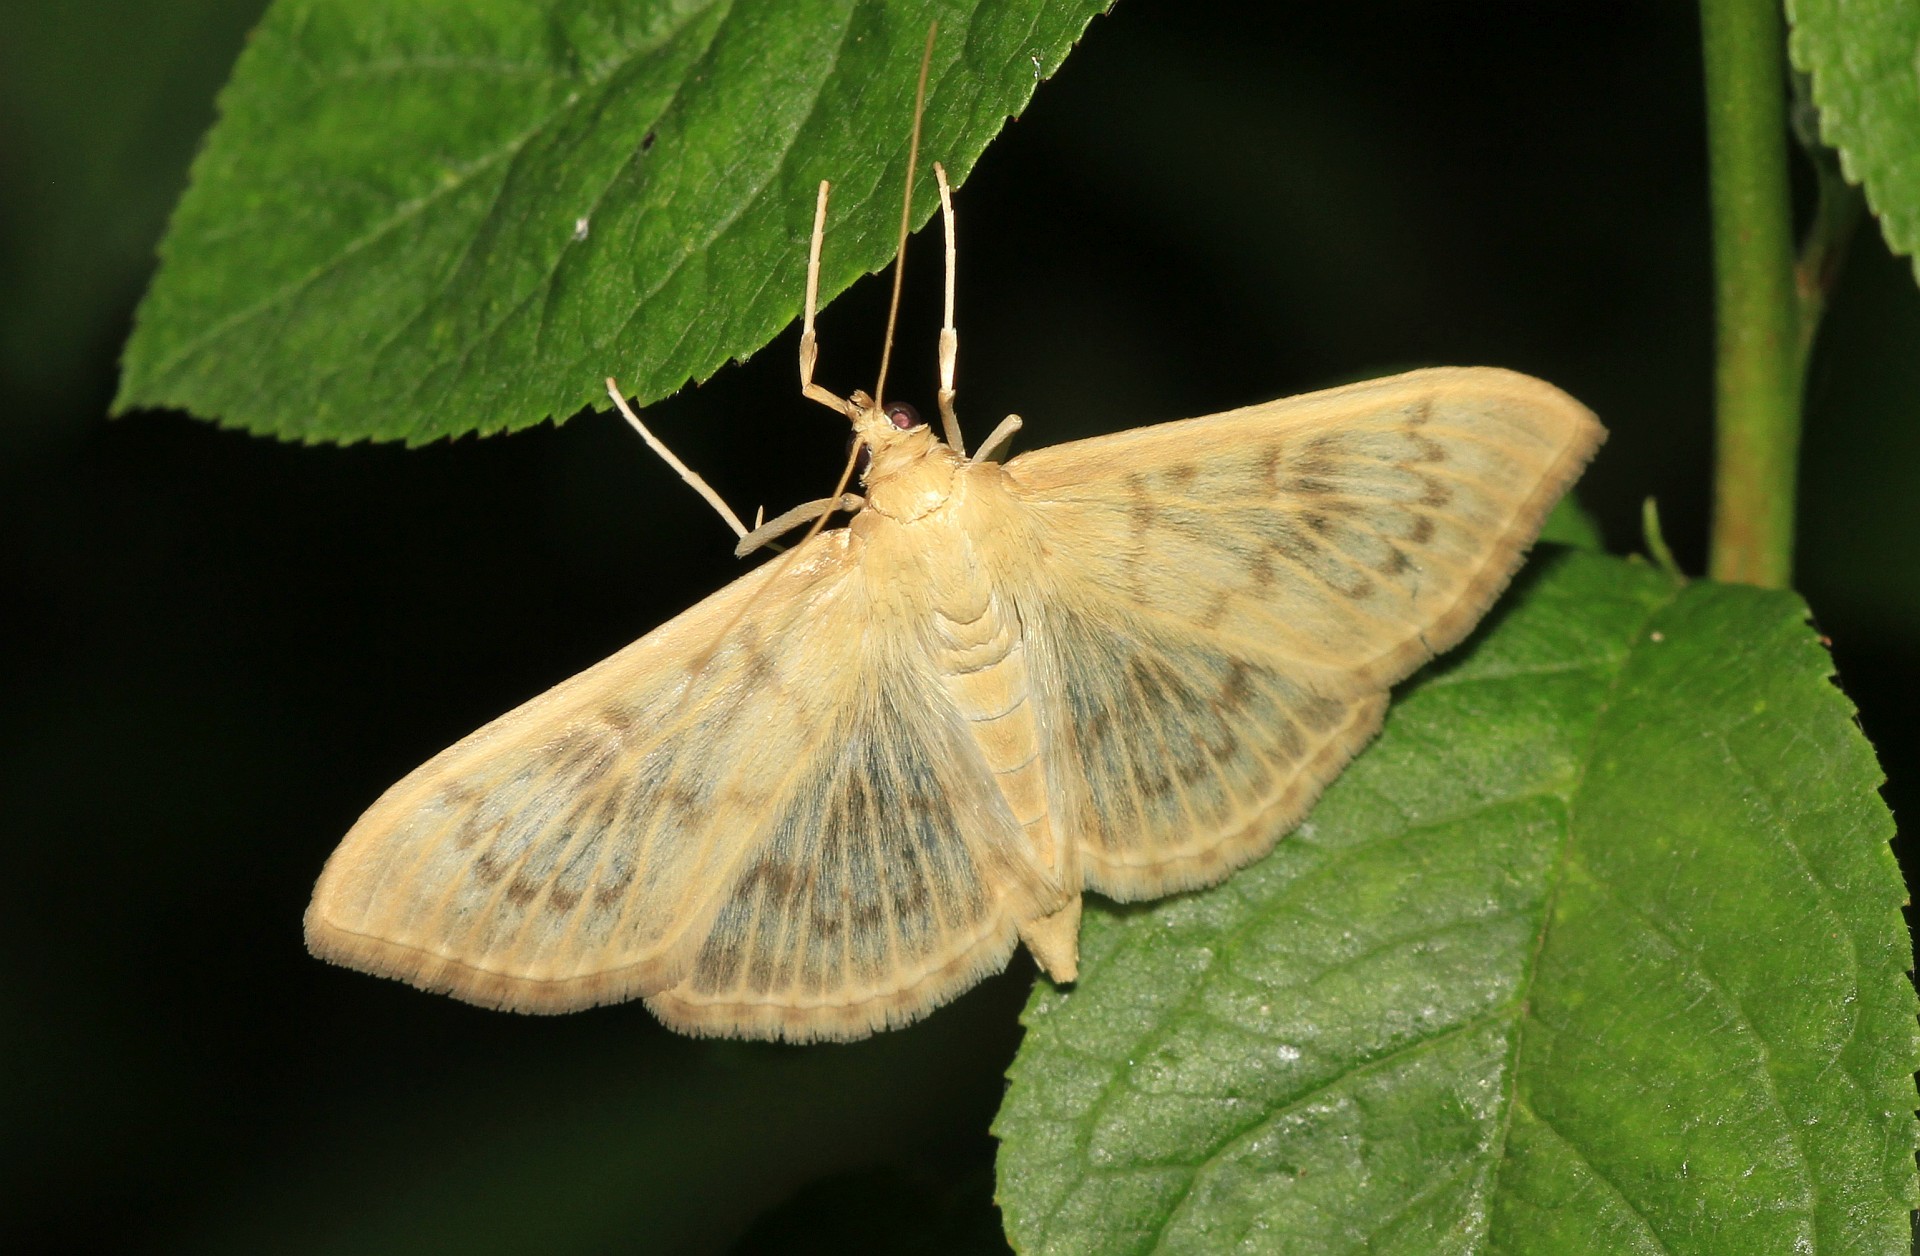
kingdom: Animalia
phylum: Arthropoda
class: Insecta
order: Lepidoptera
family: Crambidae
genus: Patania
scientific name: Patania ruralis
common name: Mother of pearl
